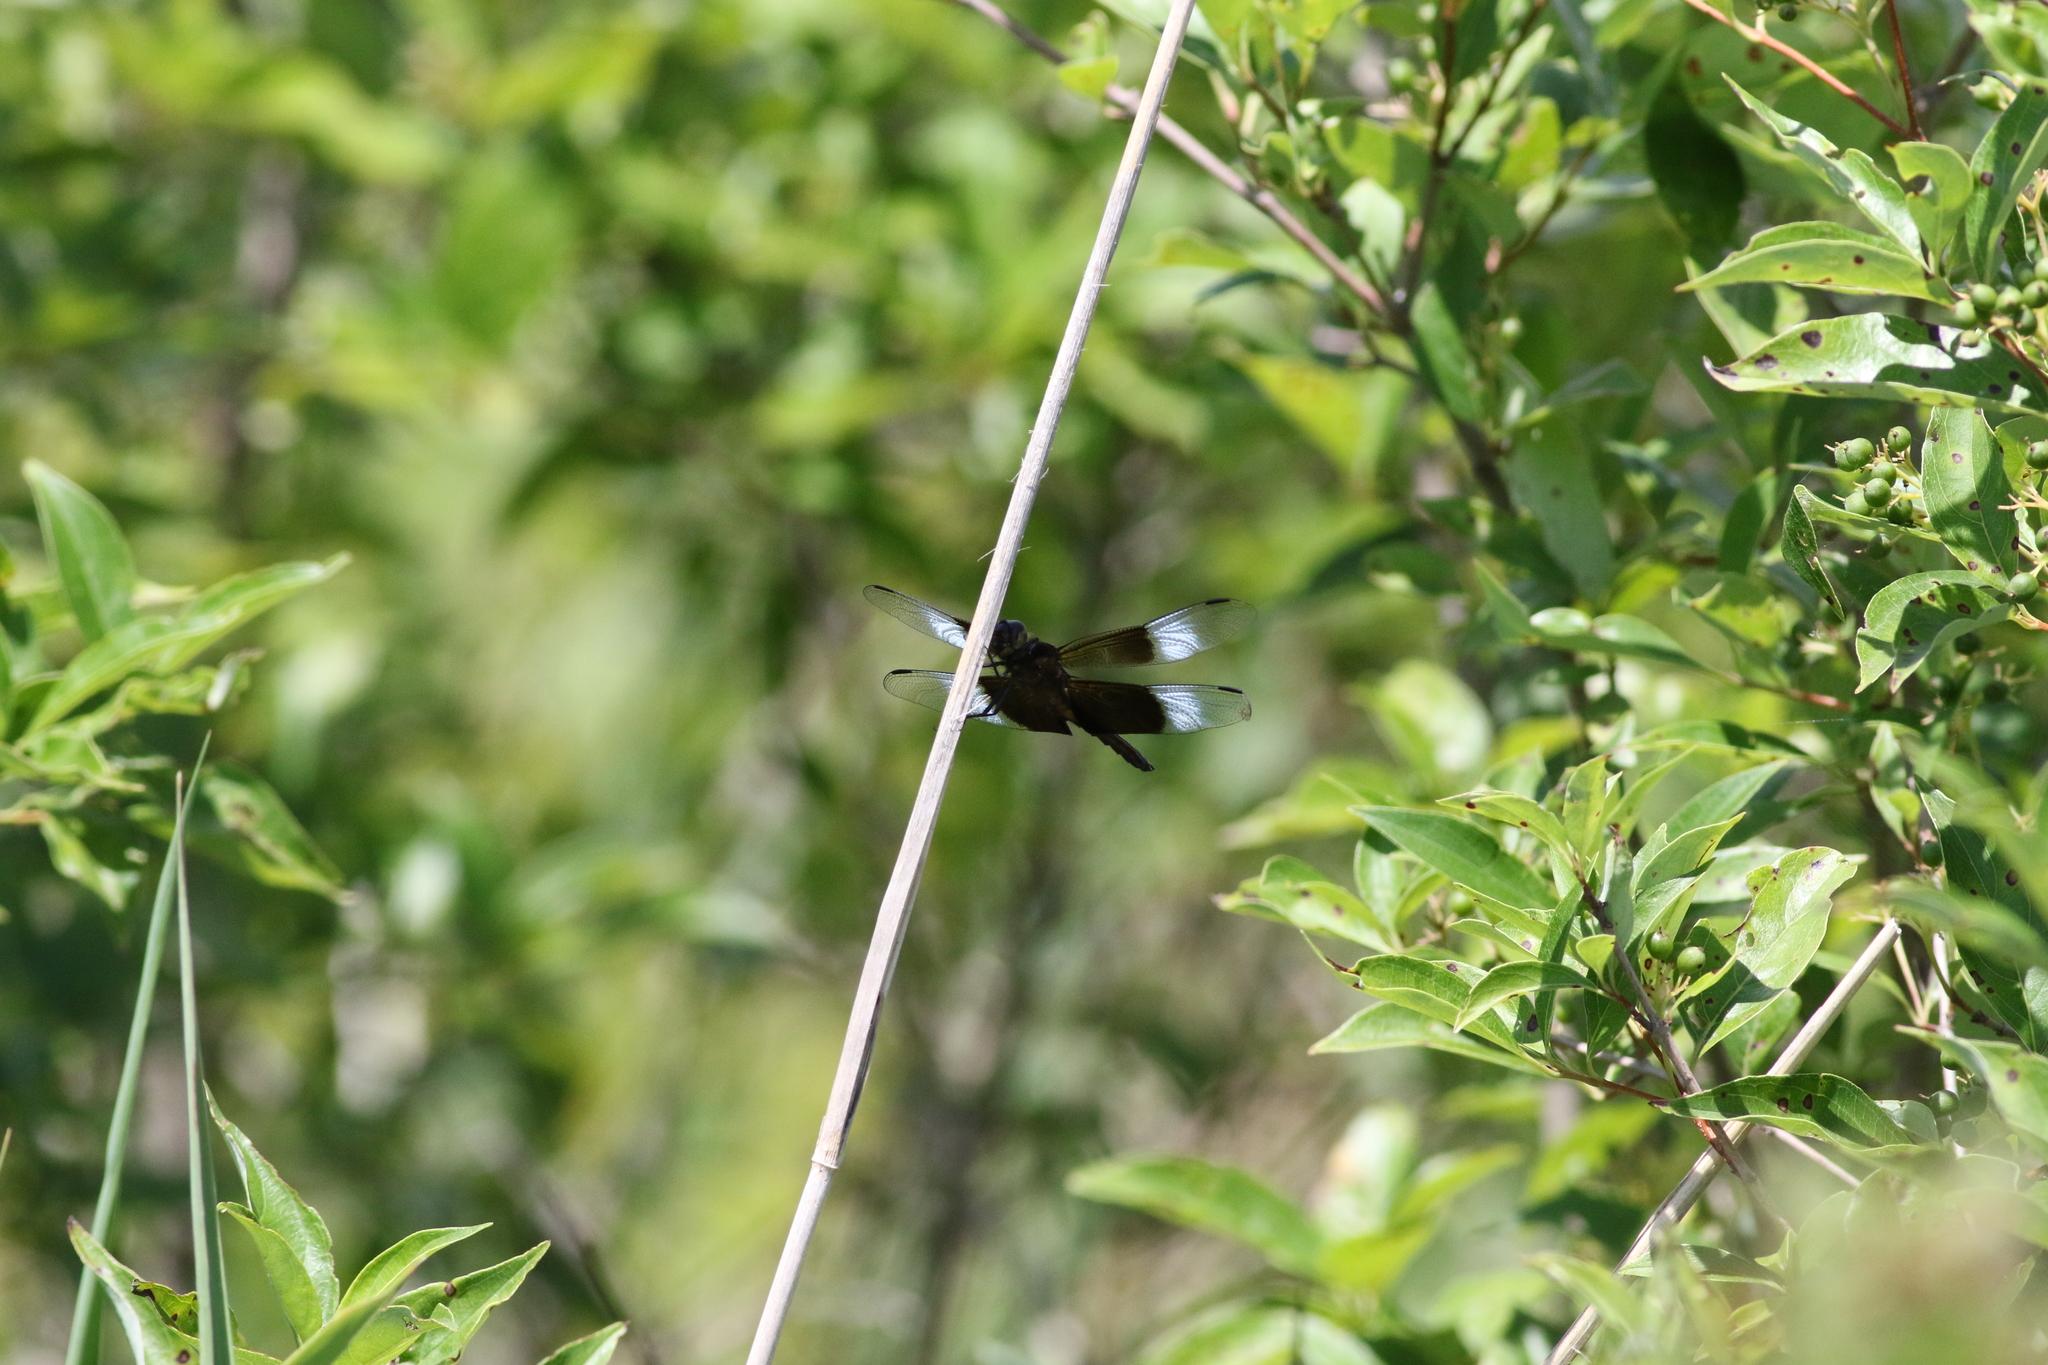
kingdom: Animalia
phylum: Arthropoda
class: Insecta
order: Odonata
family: Libellulidae
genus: Libellula
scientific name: Libellula luctuosa
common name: Widow skimmer
